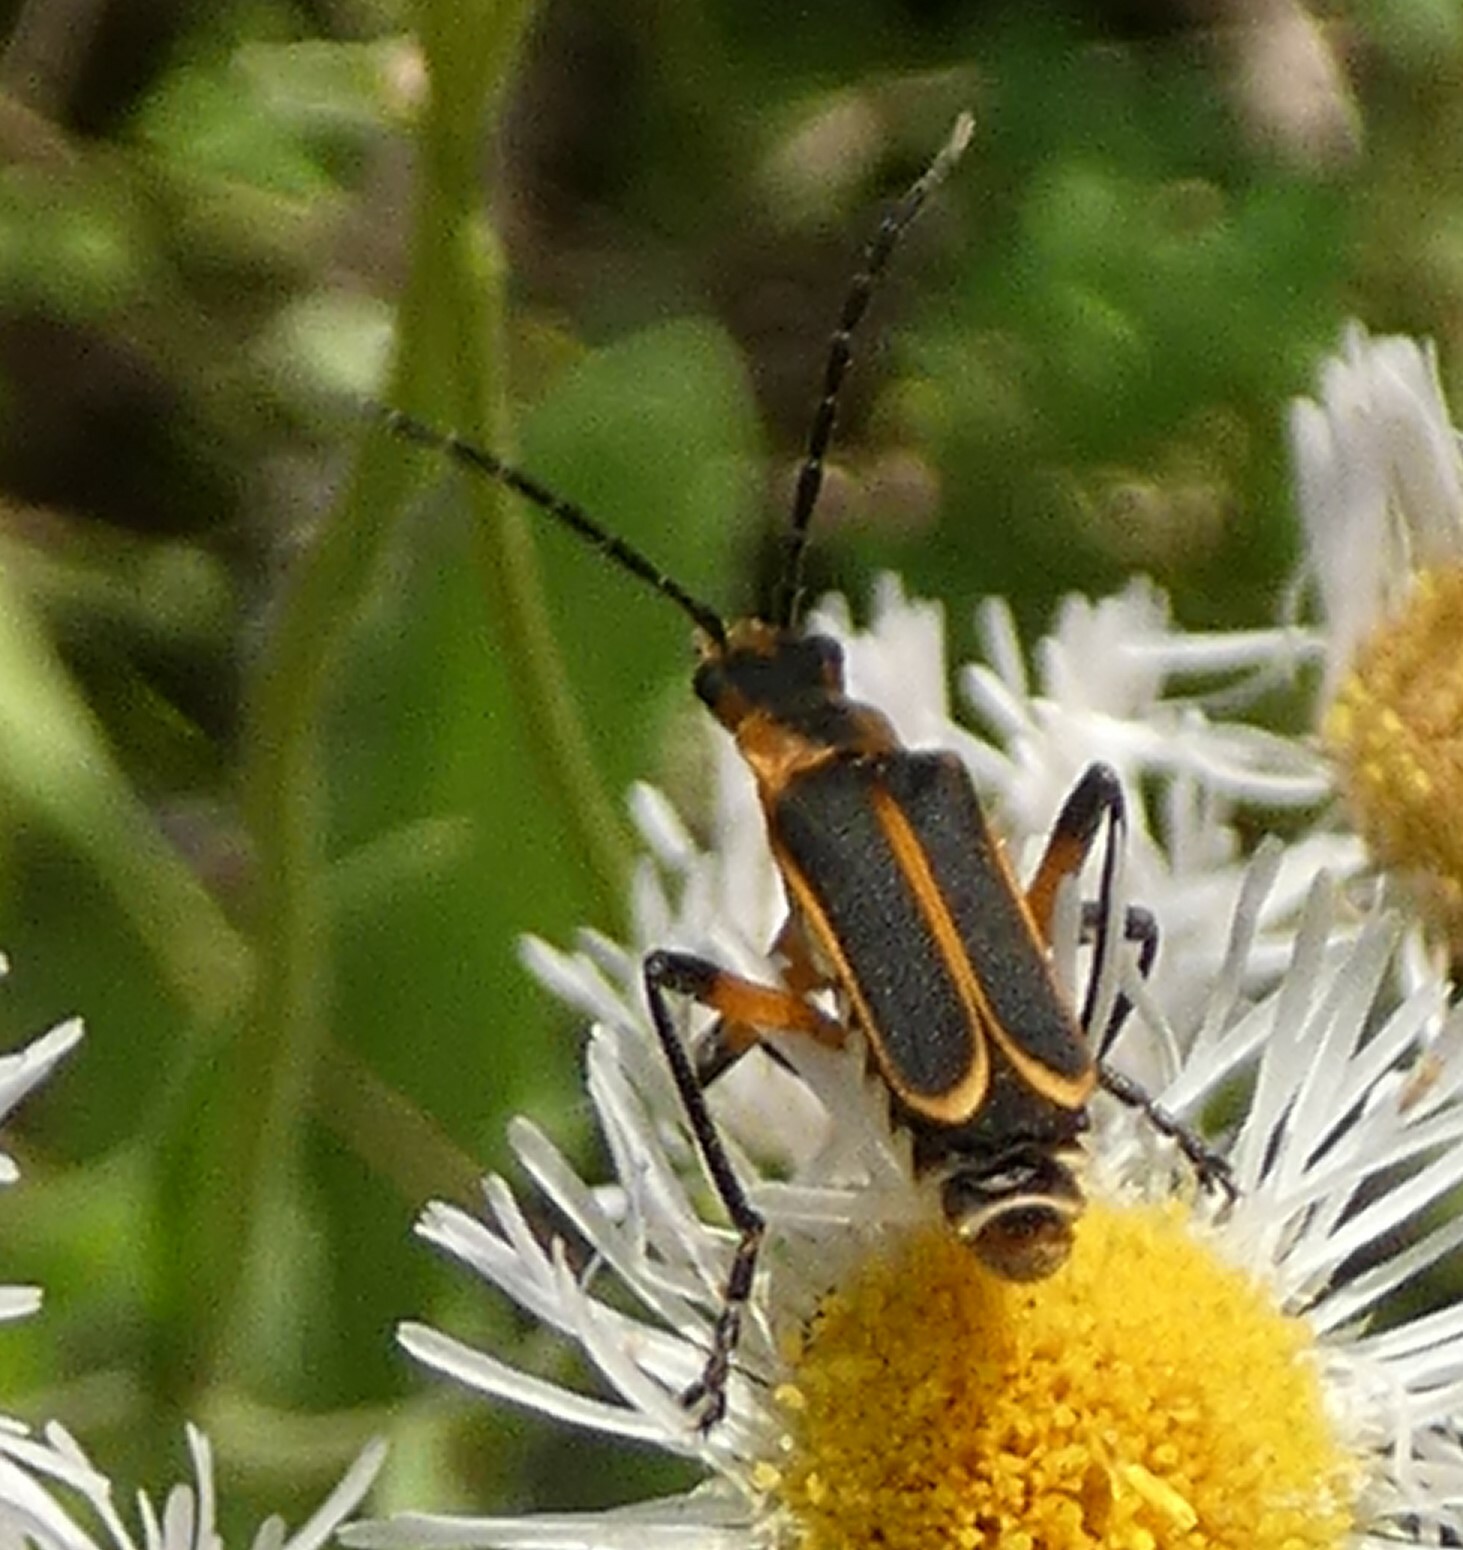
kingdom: Animalia
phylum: Arthropoda
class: Insecta
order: Coleoptera
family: Cantharidae
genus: Chauliognathus
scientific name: Chauliognathus marginatus
